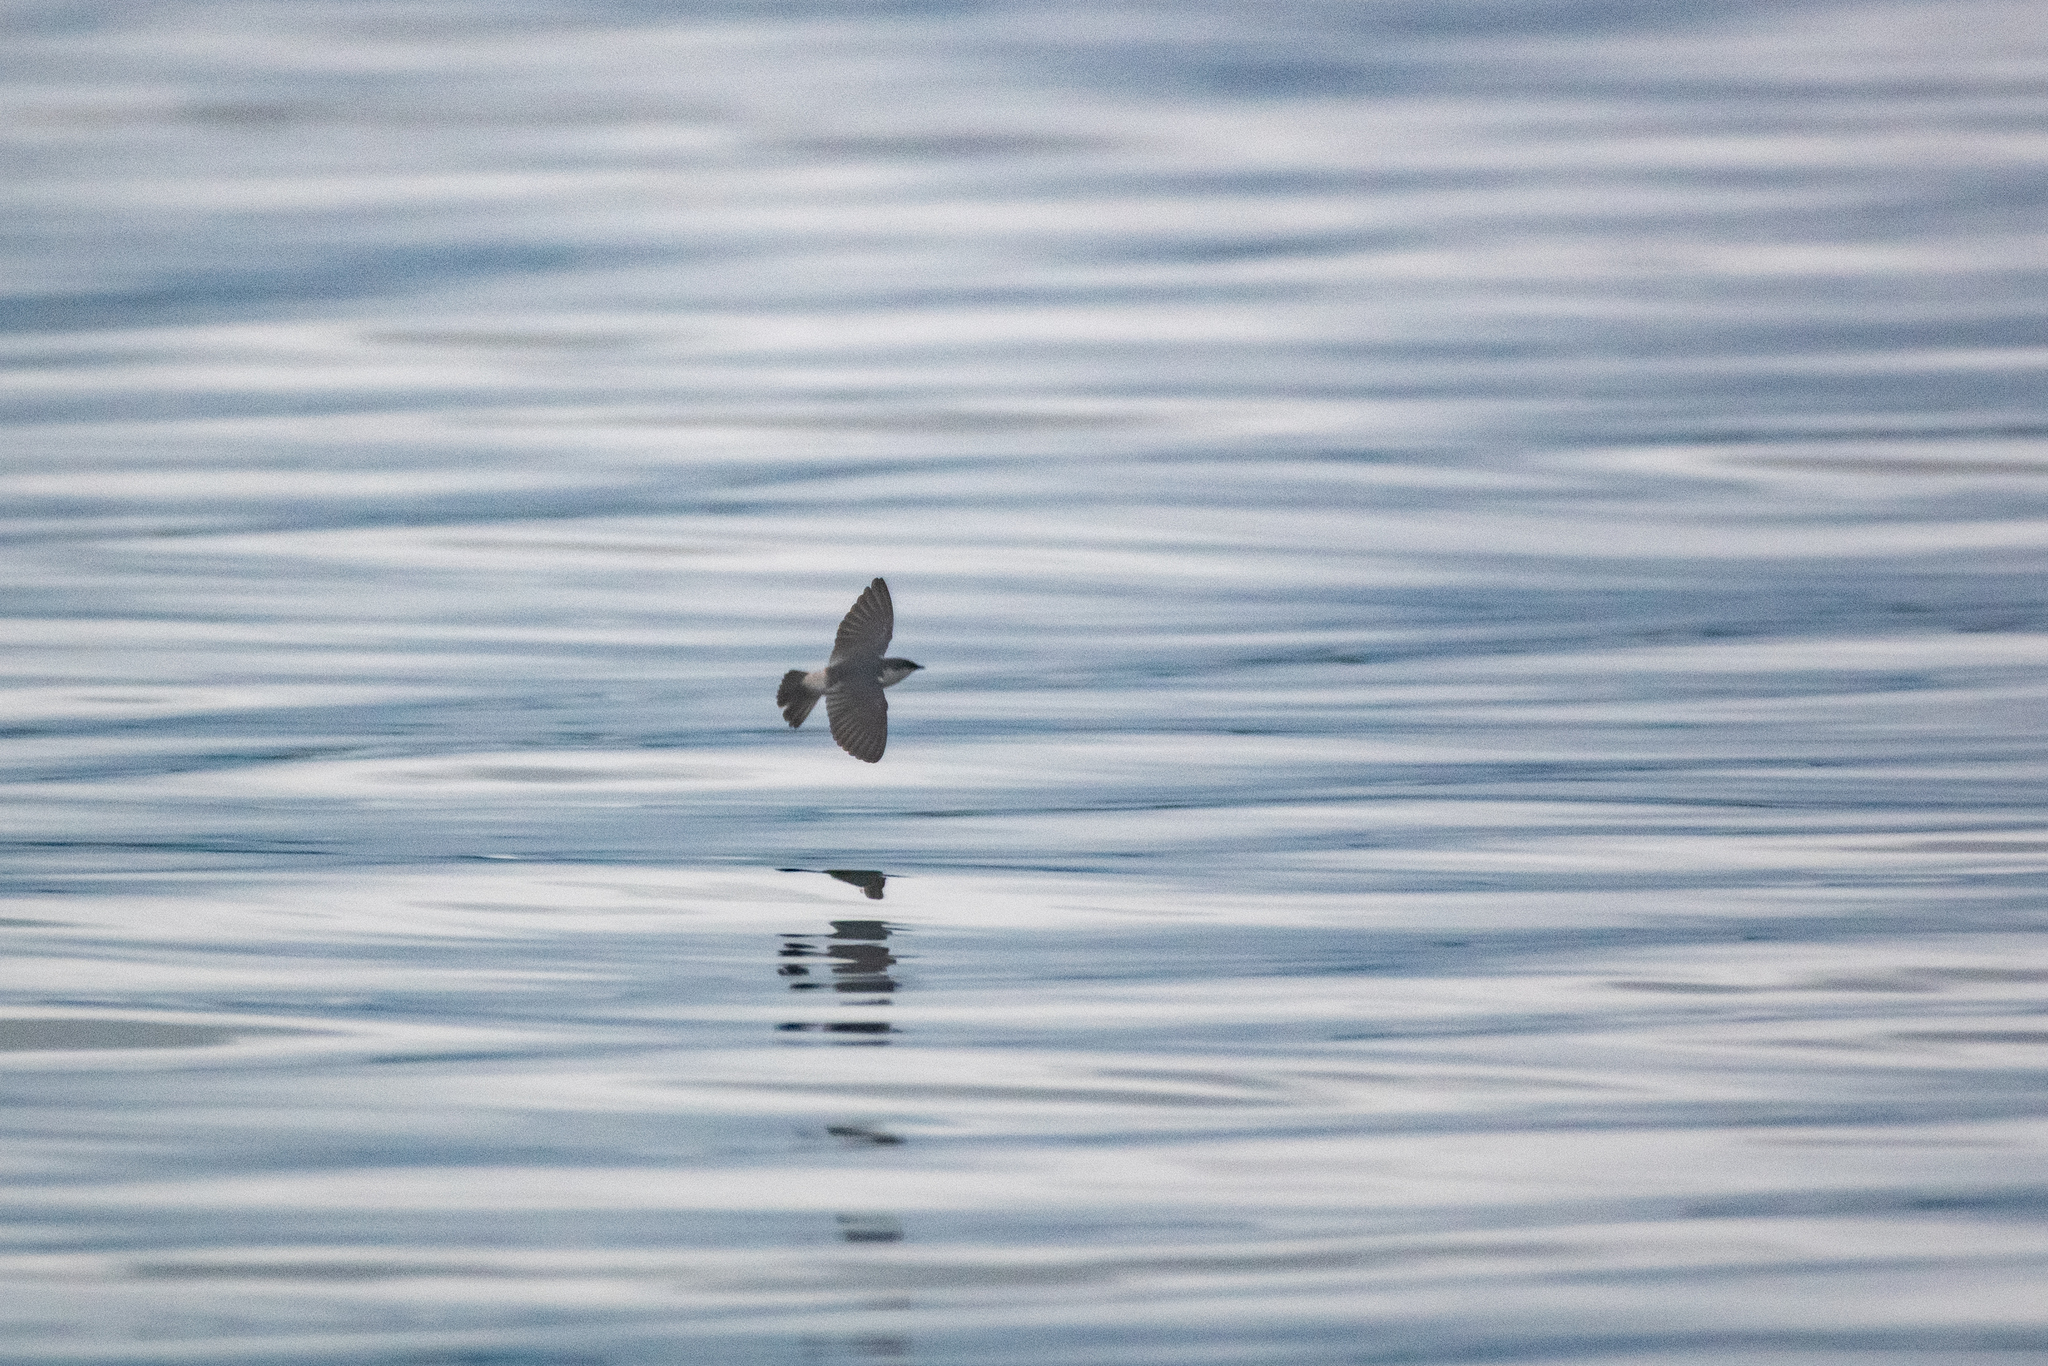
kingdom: Animalia
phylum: Chordata
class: Aves
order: Passeriformes
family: Hirundinidae
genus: Tachycineta
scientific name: Tachycineta albilinea
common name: Mangrove swallow
